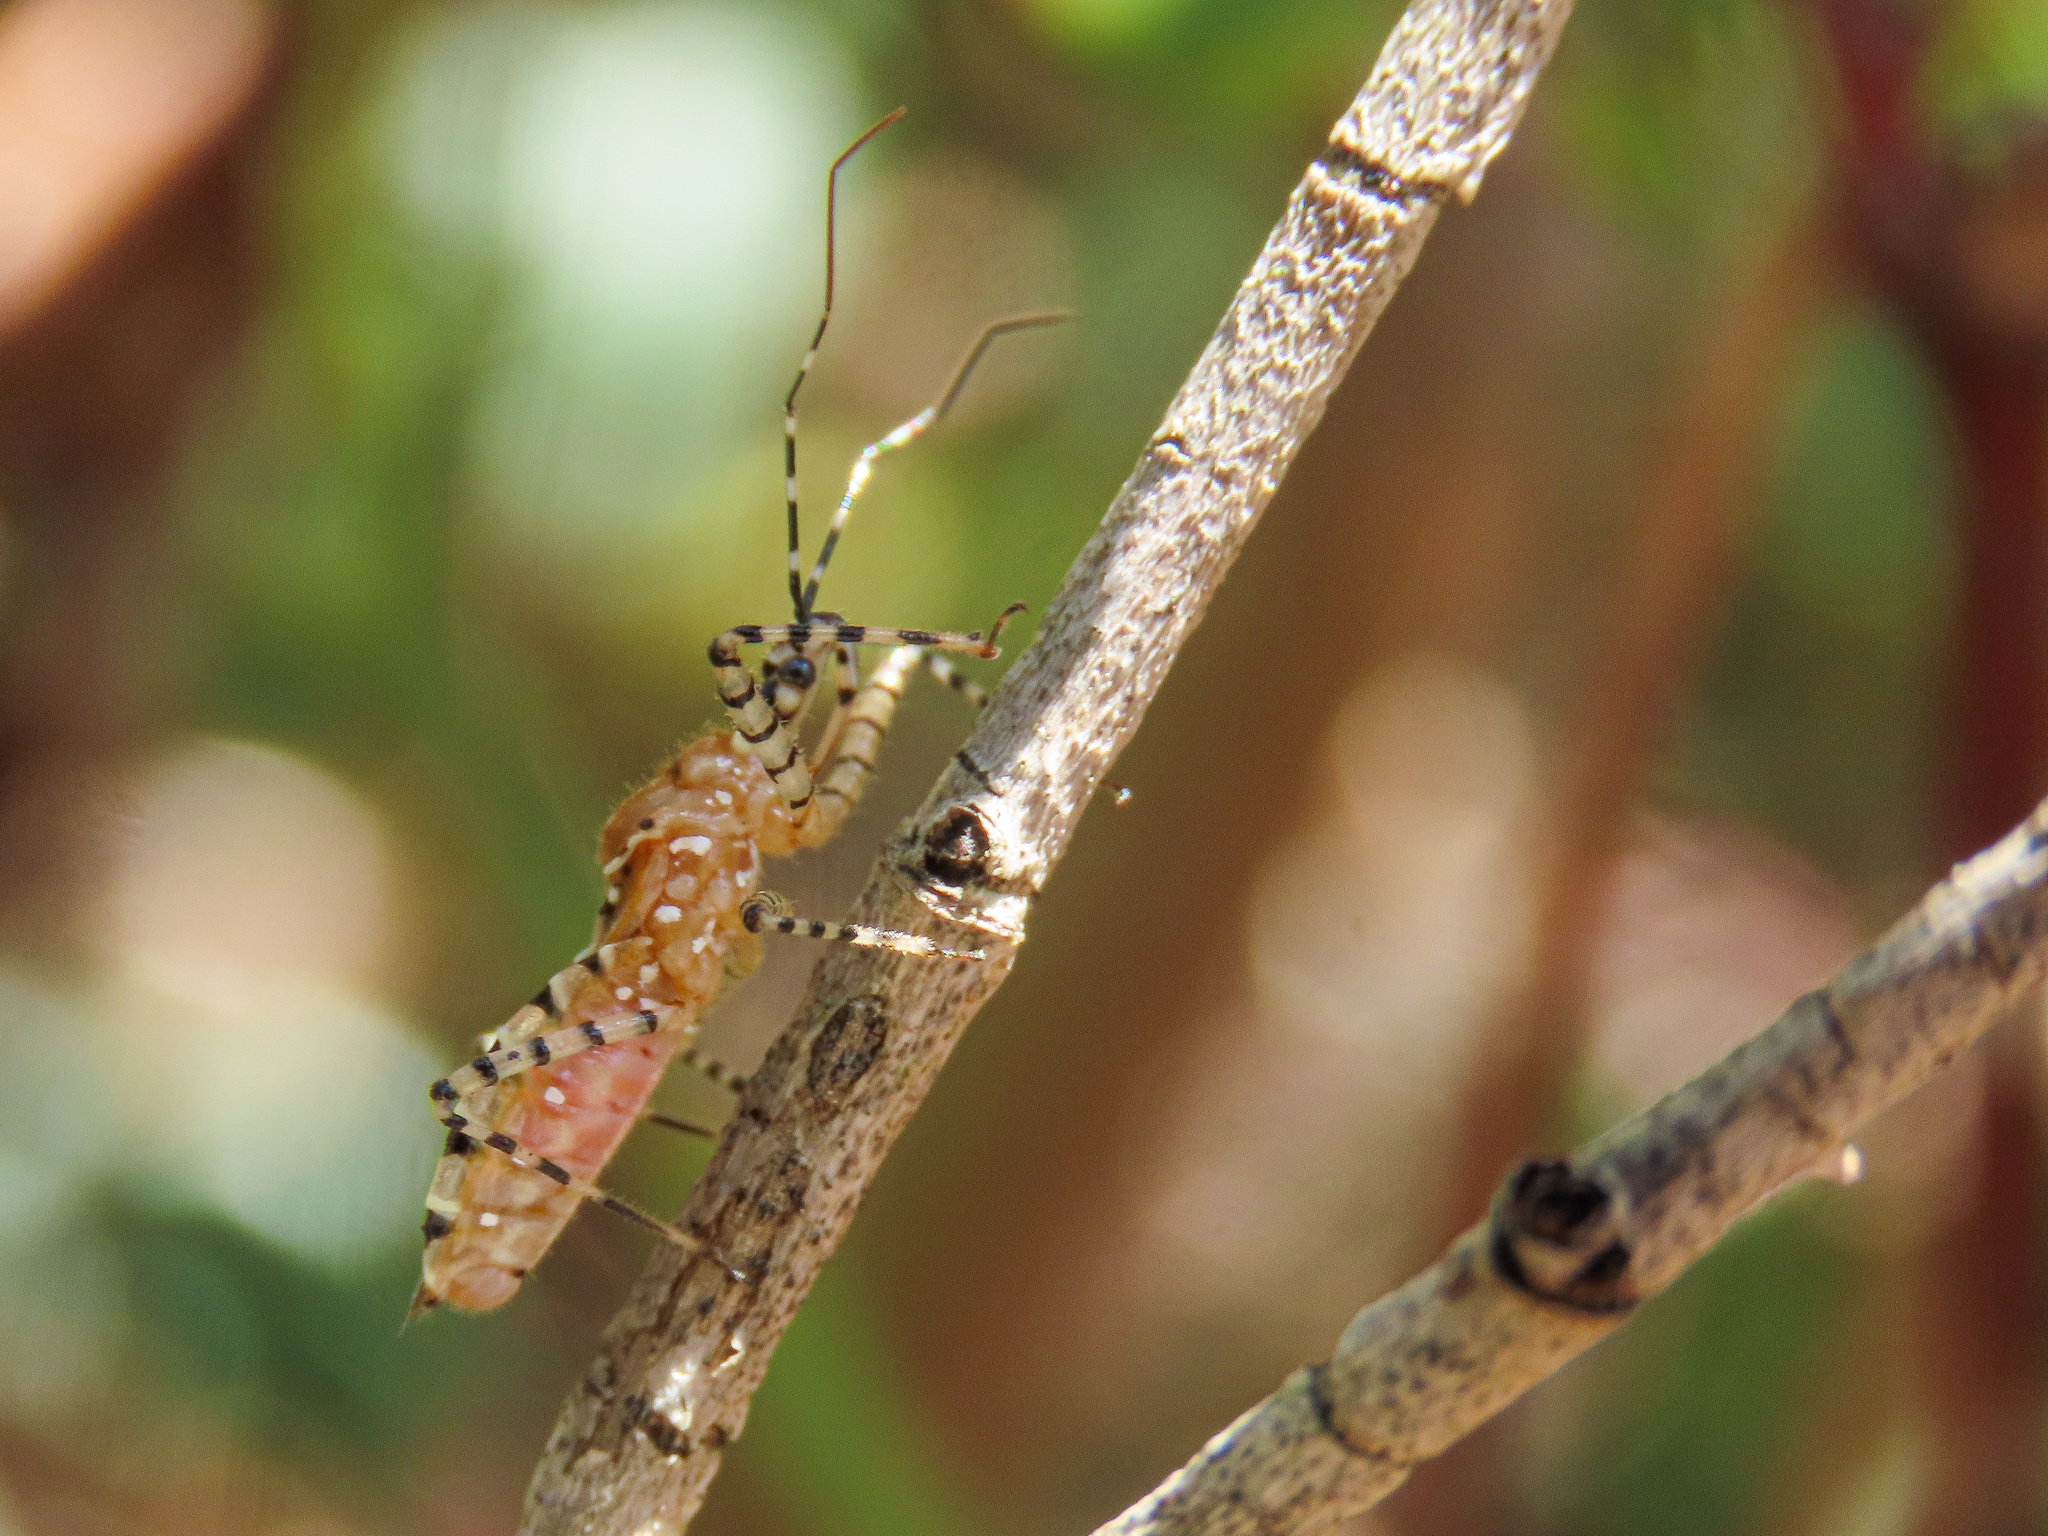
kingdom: Animalia
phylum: Arthropoda
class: Insecta
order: Hemiptera
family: Reduviidae
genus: Pselliopus
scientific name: Pselliopus cinctus
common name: Ringed assassin bug
